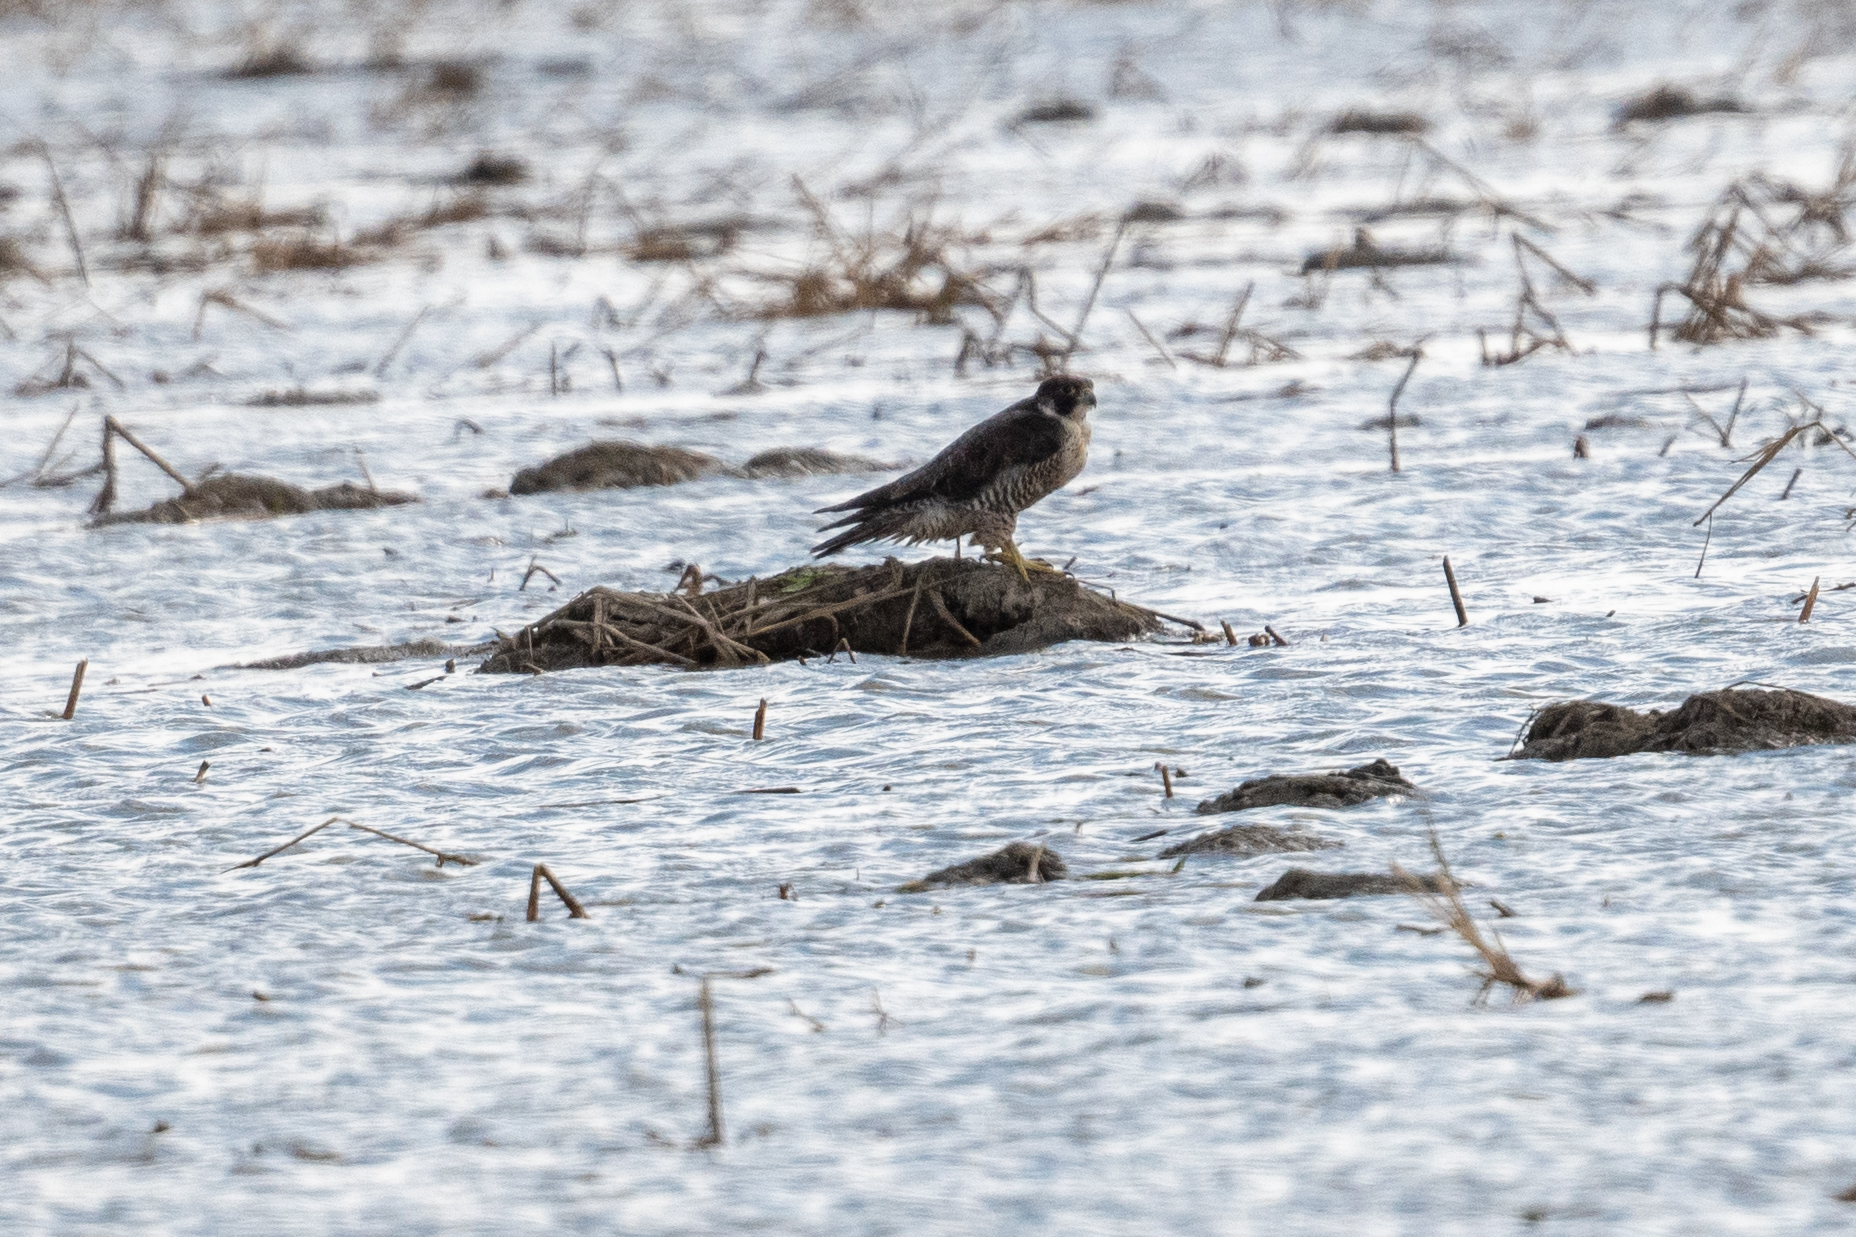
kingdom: Animalia
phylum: Chordata
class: Aves
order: Falconiformes
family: Falconidae
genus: Falco
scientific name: Falco peregrinus
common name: Peregrine falcon
